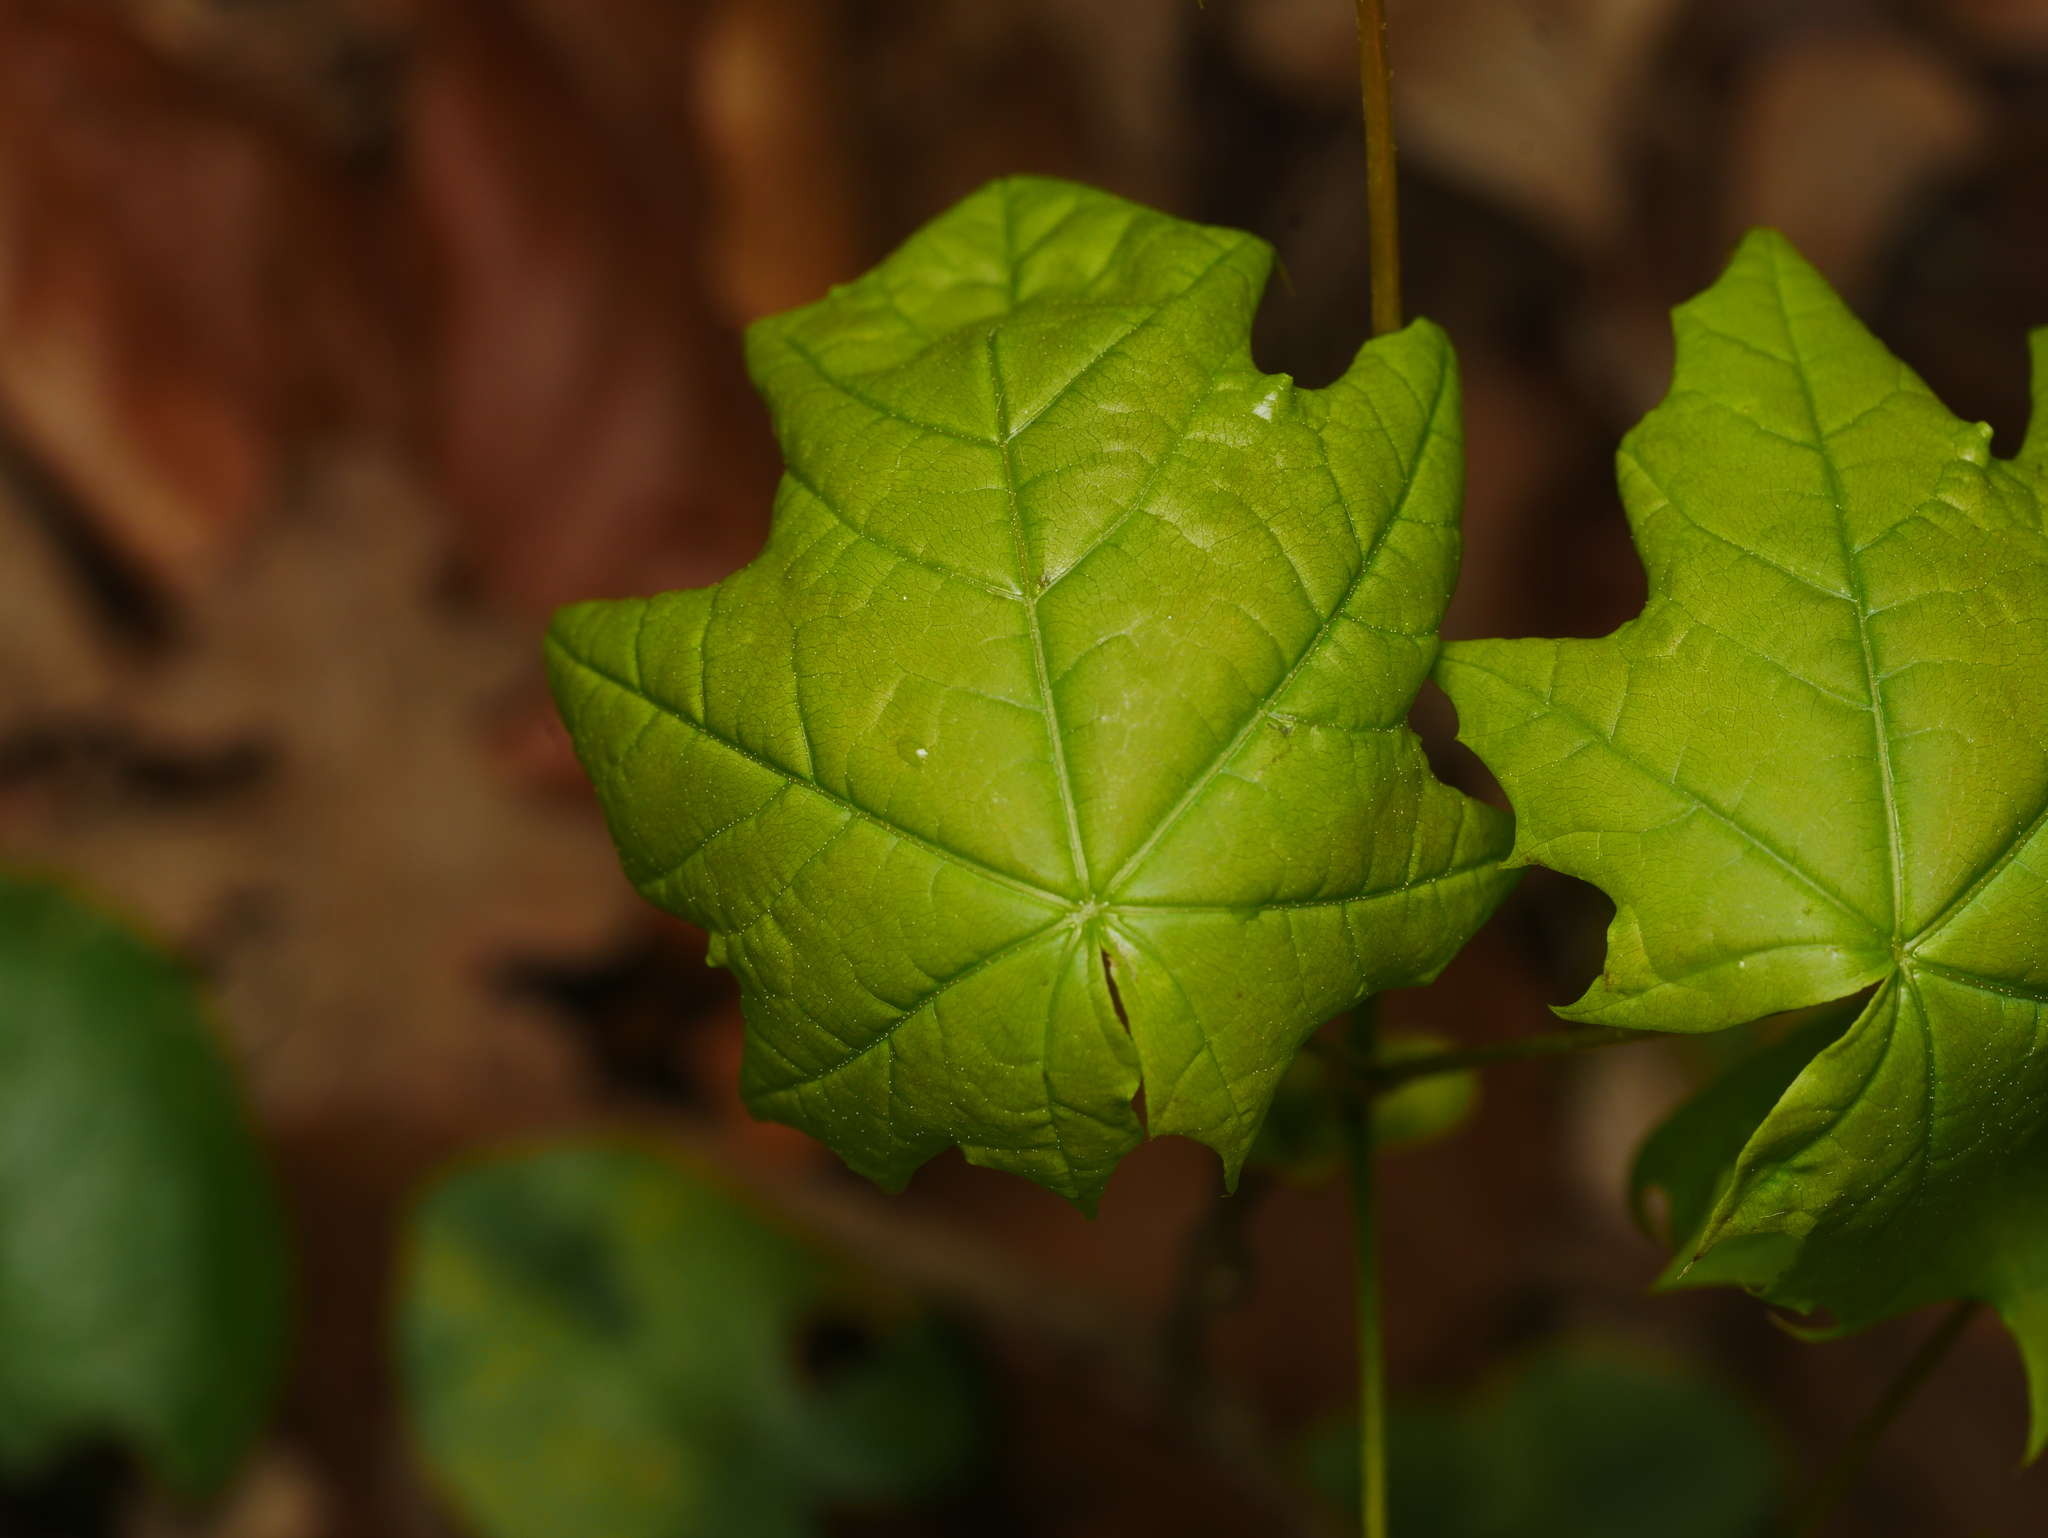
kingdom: Plantae
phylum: Tracheophyta
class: Magnoliopsida
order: Sapindales
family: Sapindaceae
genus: Acer
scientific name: Acer platanoides
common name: Norway maple
